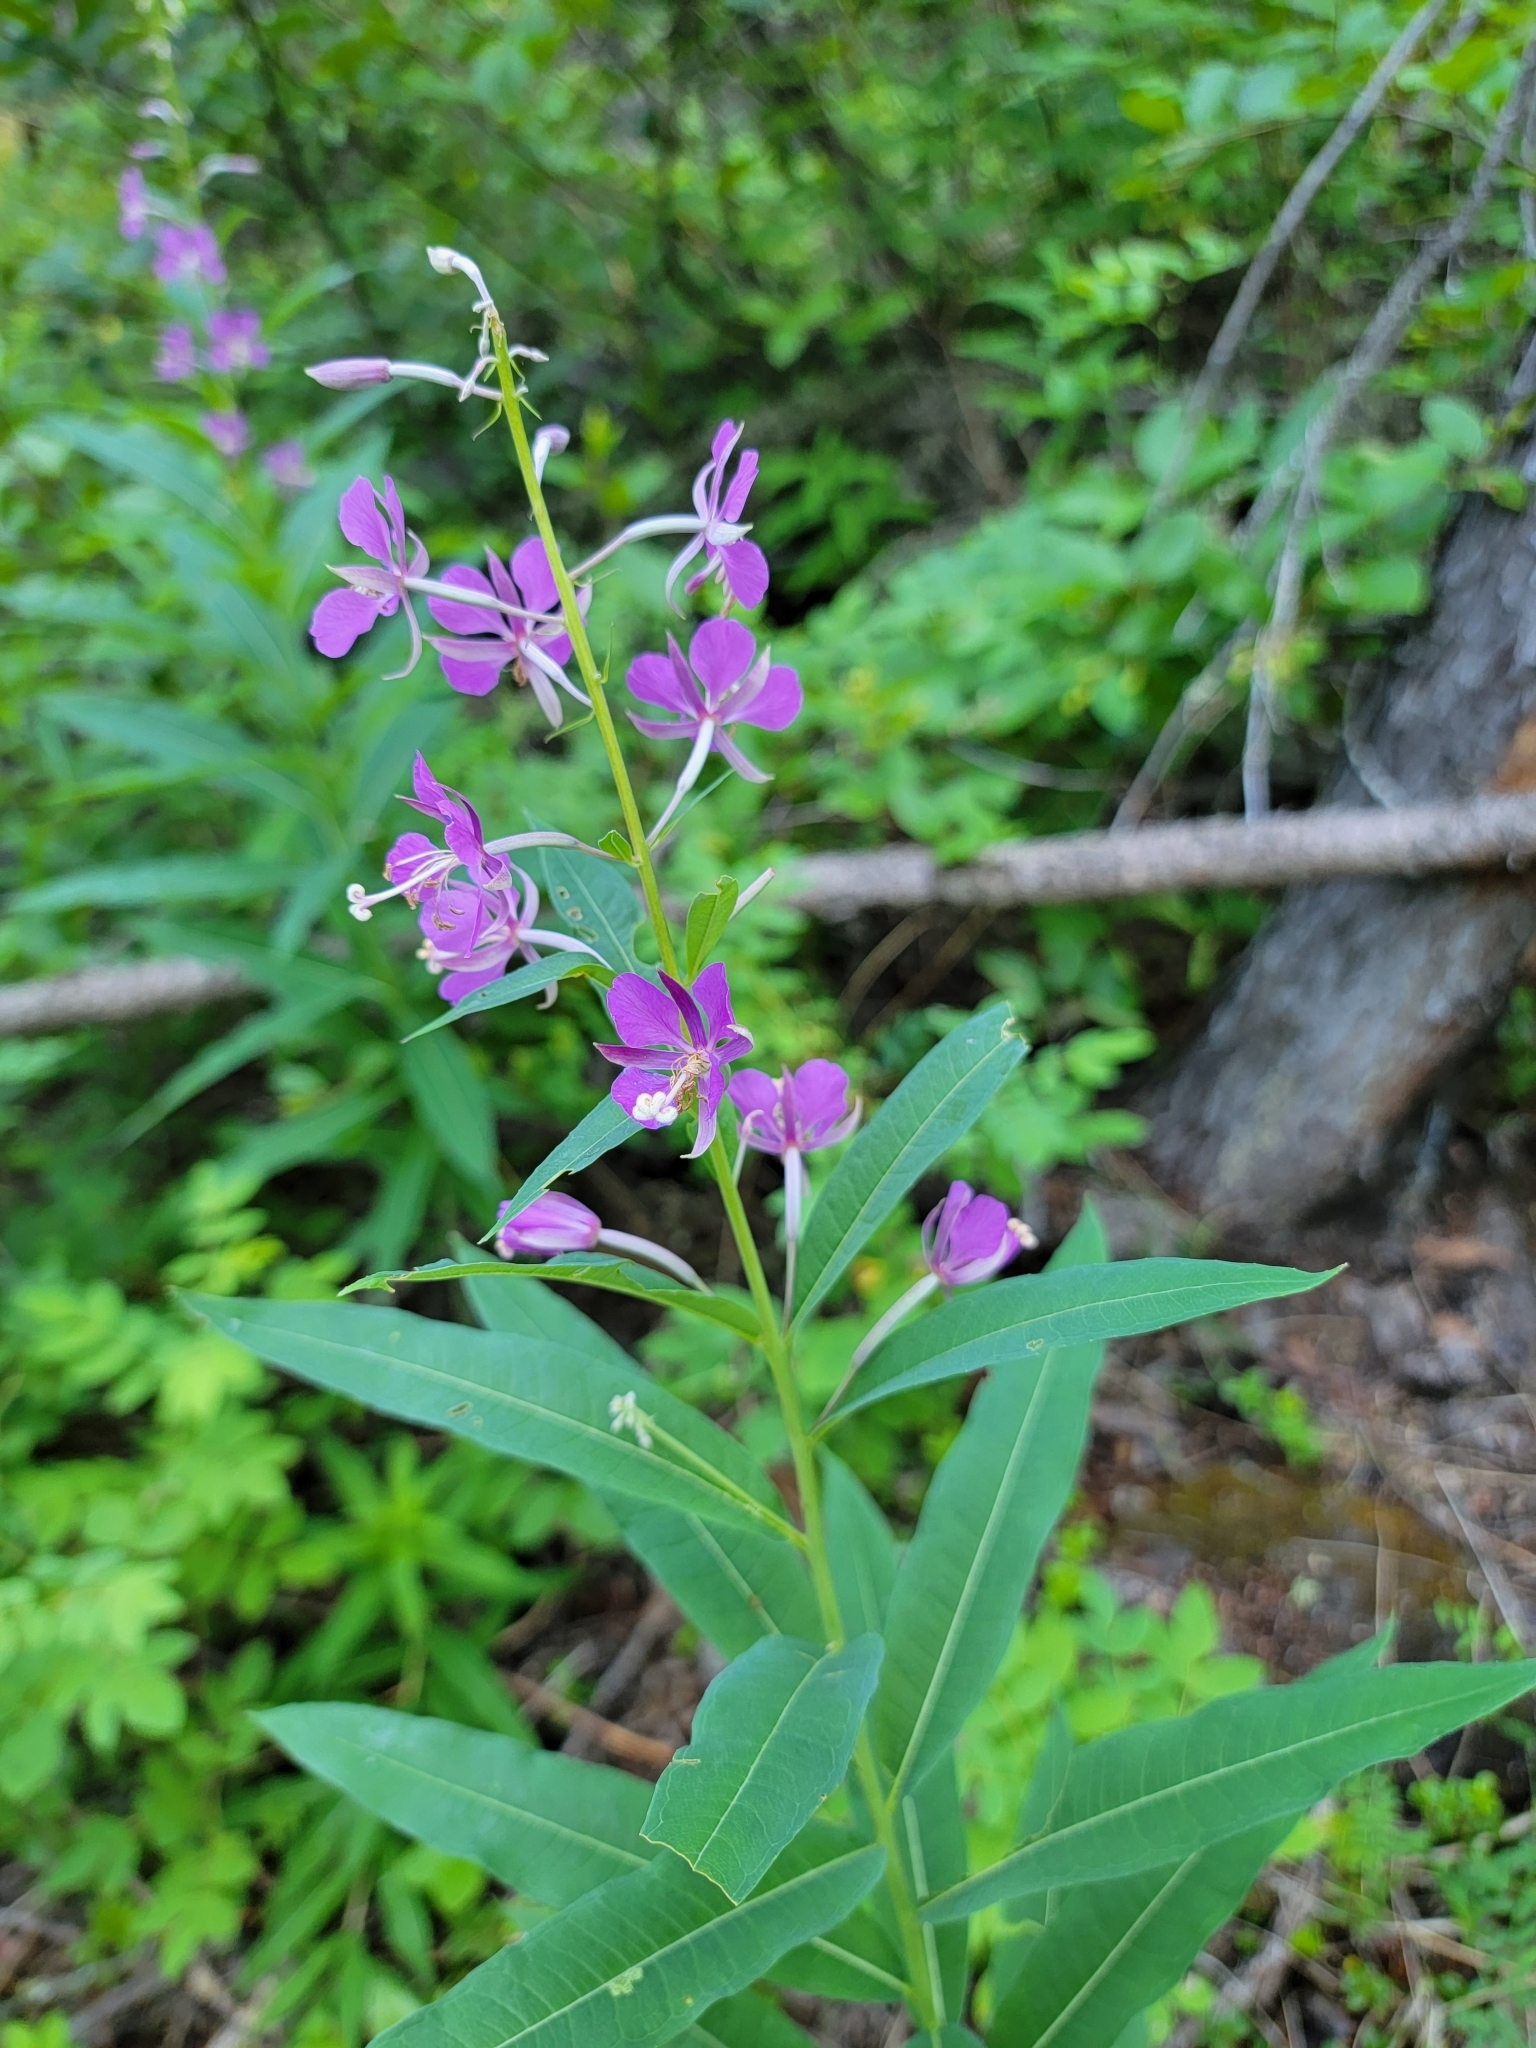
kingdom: Plantae
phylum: Tracheophyta
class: Magnoliopsida
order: Myrtales
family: Onagraceae
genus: Chamaenerion
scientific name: Chamaenerion angustifolium
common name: Fireweed
